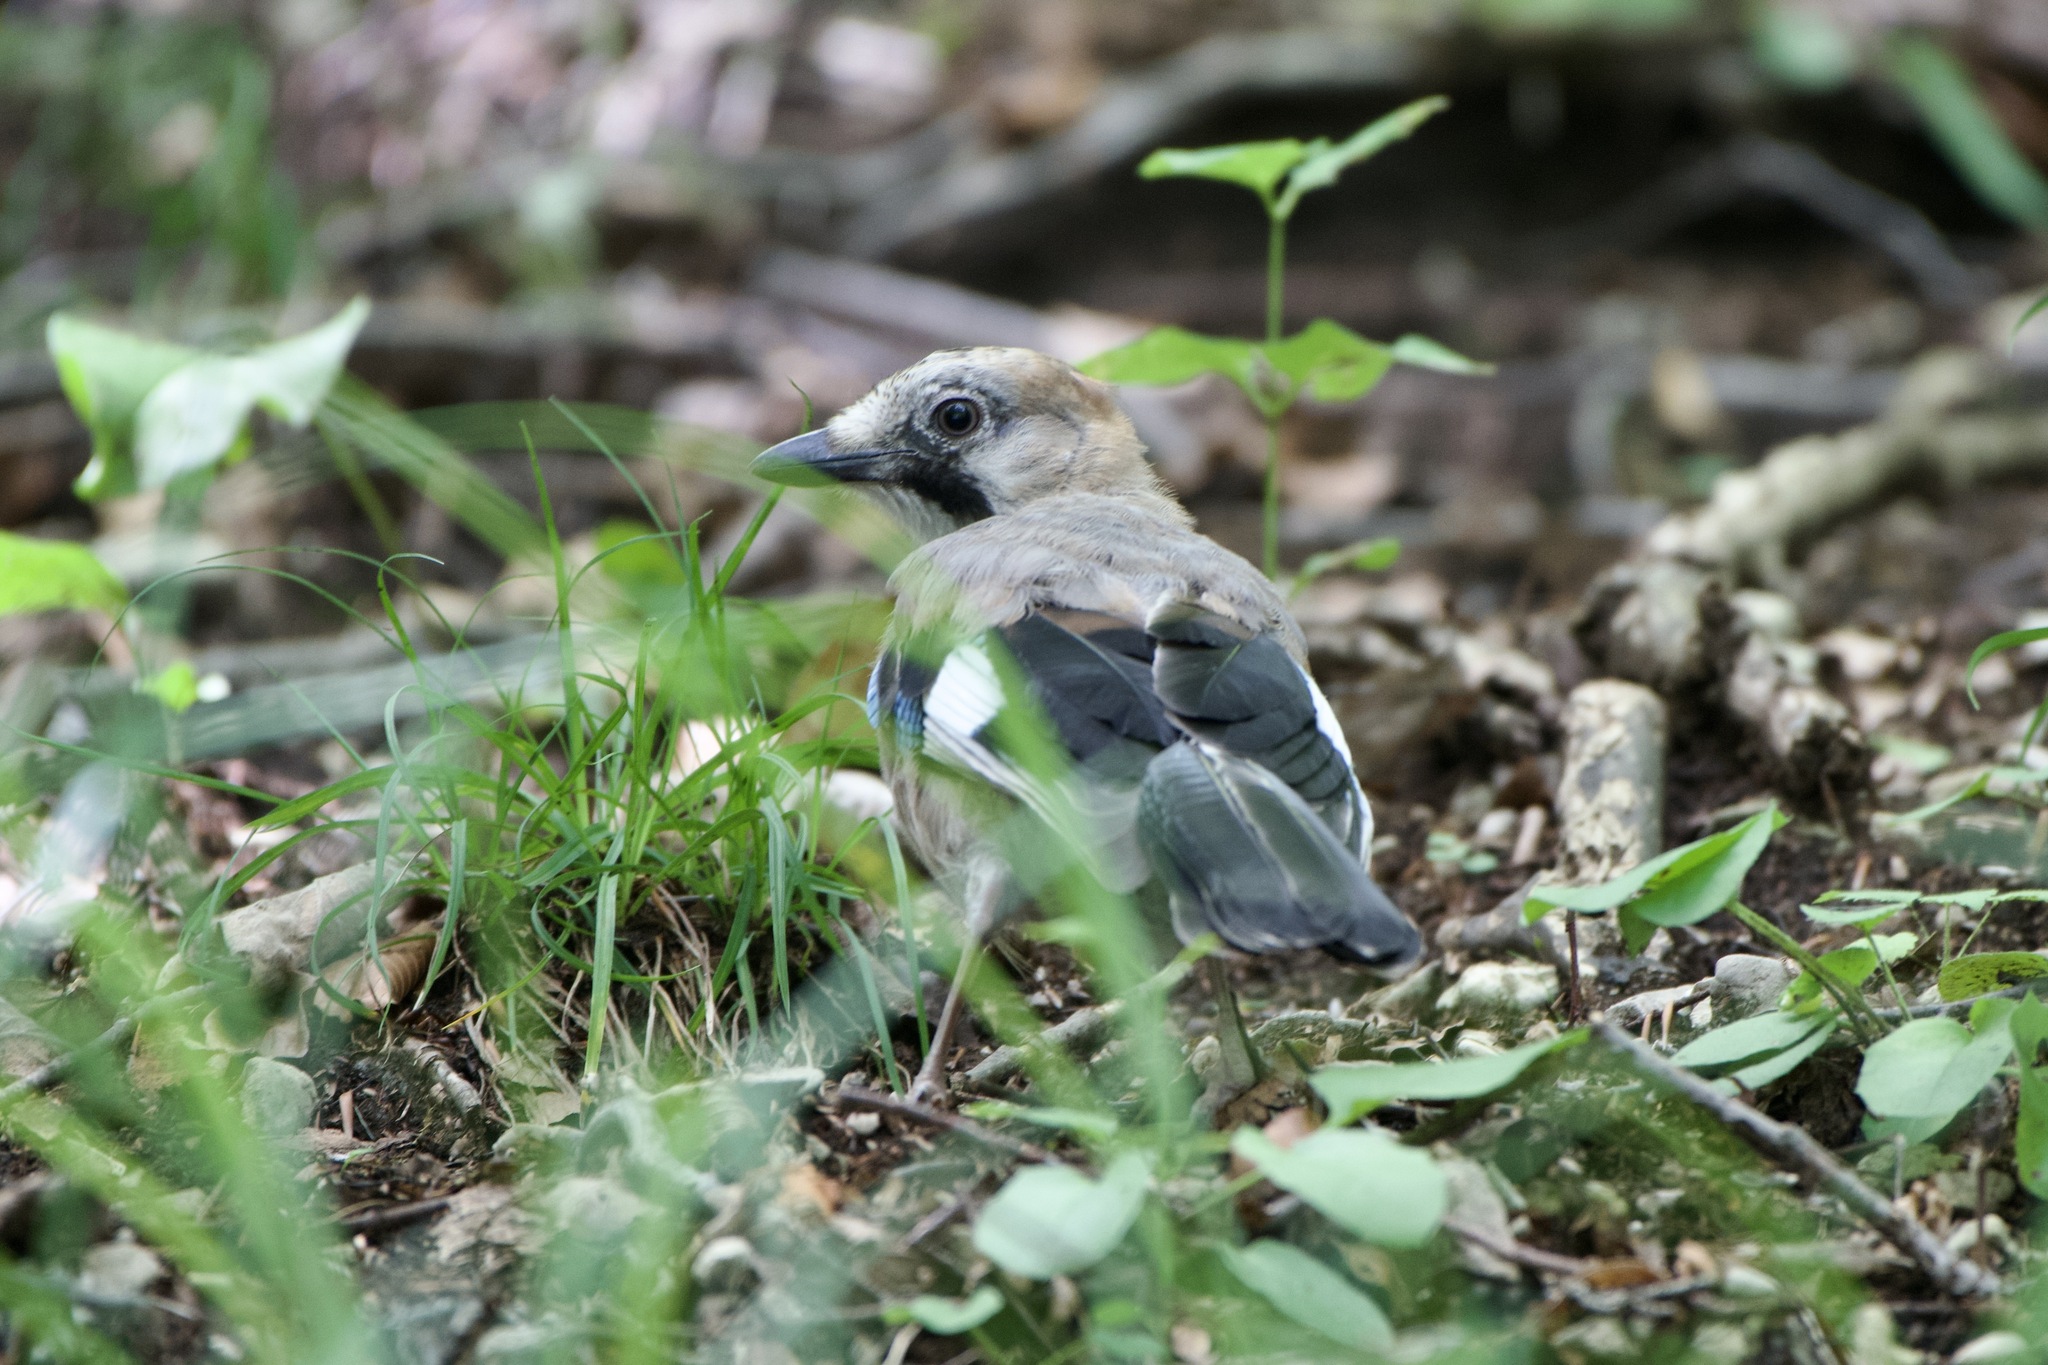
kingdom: Animalia
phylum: Chordata
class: Aves
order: Passeriformes
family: Corvidae
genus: Garrulus
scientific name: Garrulus glandarius
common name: Eurasian jay
